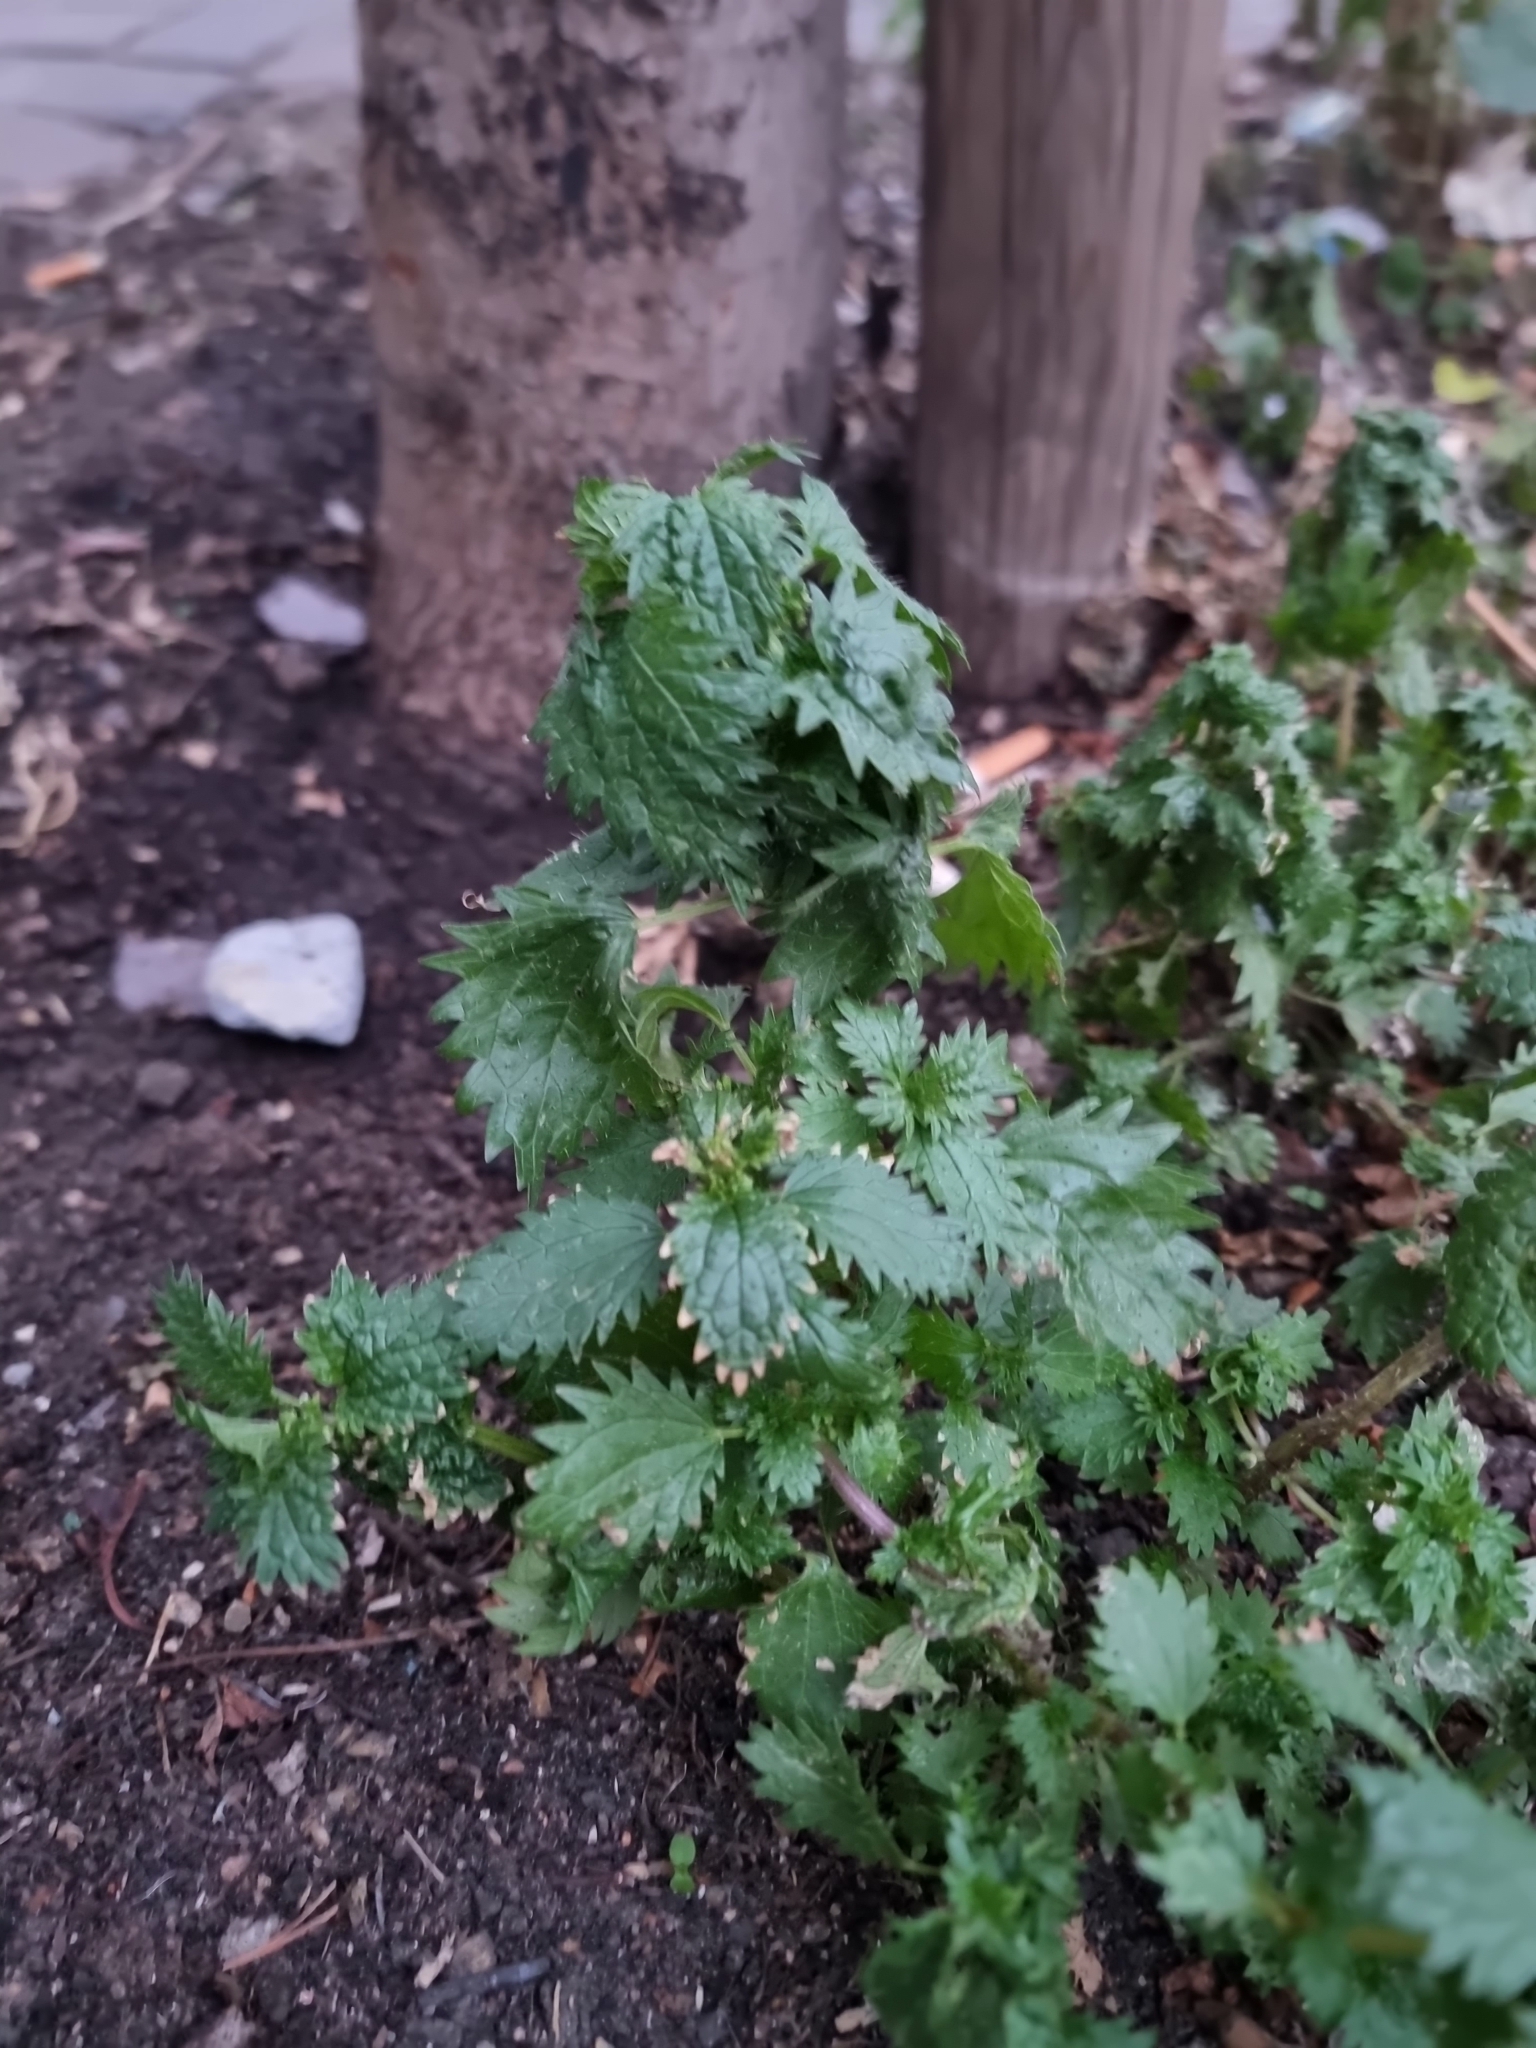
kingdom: Plantae
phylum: Tracheophyta
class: Magnoliopsida
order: Rosales
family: Urticaceae
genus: Urtica
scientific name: Urtica urens
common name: Dwarf nettle
